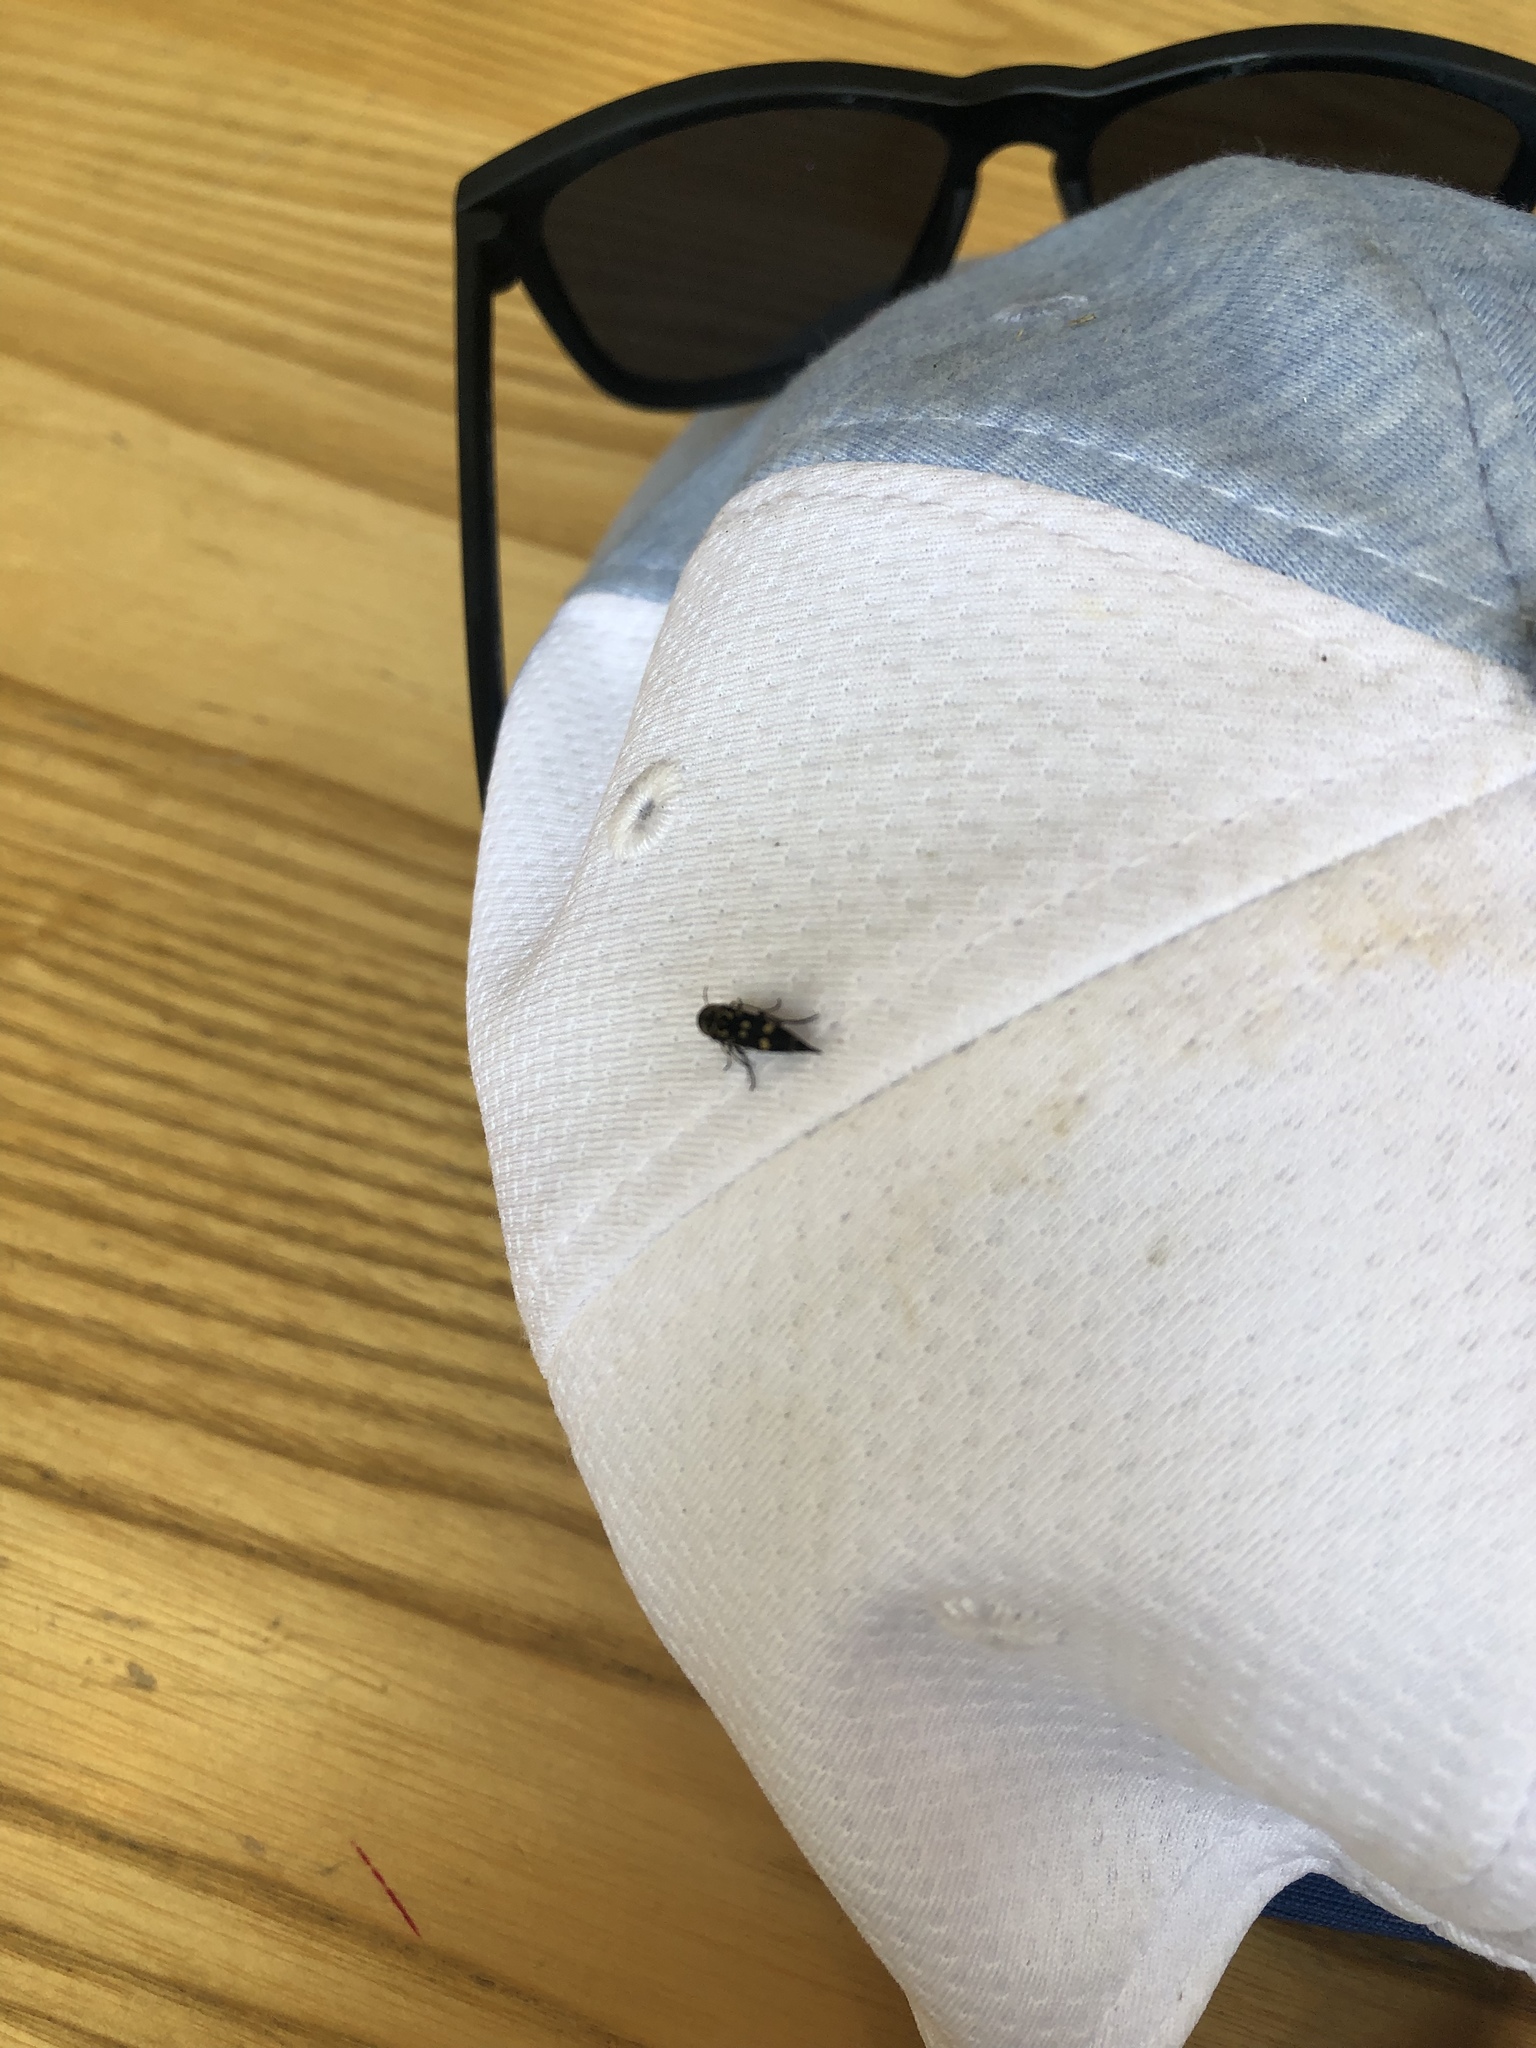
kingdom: Animalia
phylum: Arthropoda
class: Insecta
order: Coleoptera
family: Mordellidae
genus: Hoshihananomia
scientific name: Hoshihananomia octopunctata
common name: Eight-spotted tumbling flower beetle
